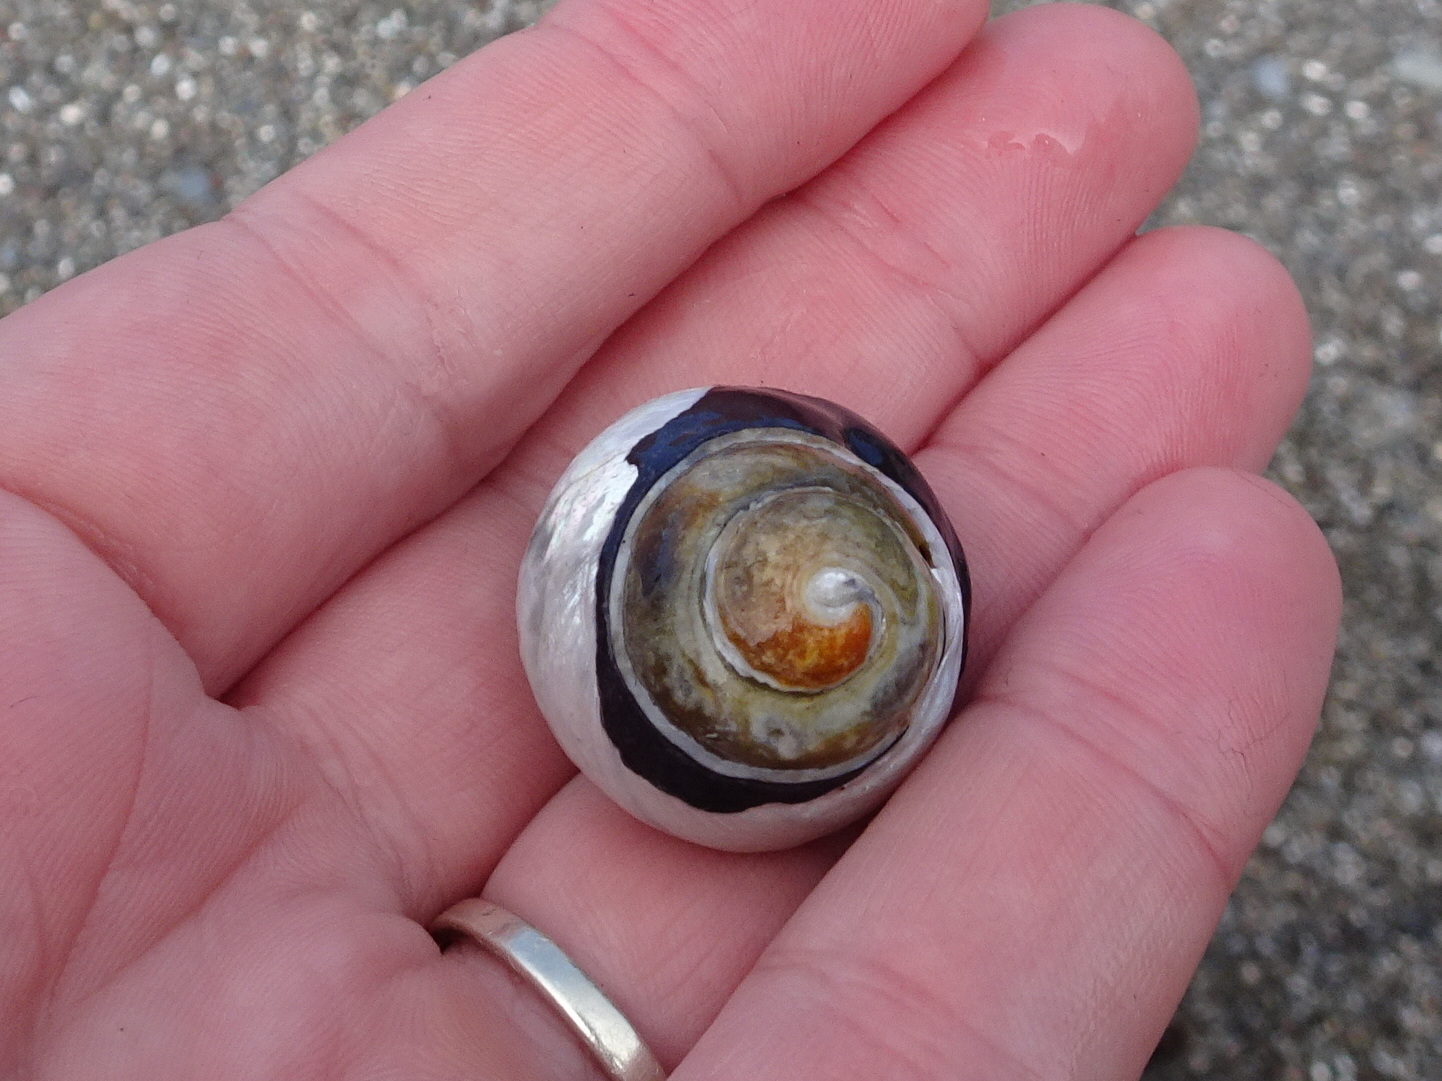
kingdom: Animalia
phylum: Mollusca
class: Gastropoda
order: Trochida
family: Tegulidae
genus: Tegula
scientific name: Tegula funebralis
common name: Black tegula
